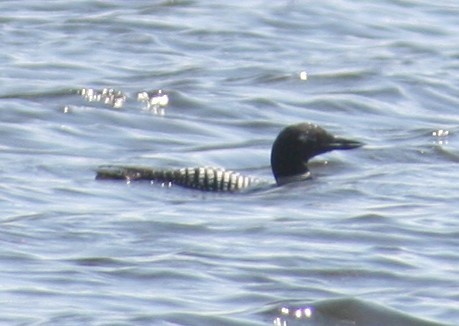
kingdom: Animalia
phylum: Chordata
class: Aves
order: Gaviiformes
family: Gaviidae
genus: Gavia
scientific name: Gavia immer
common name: Common loon
